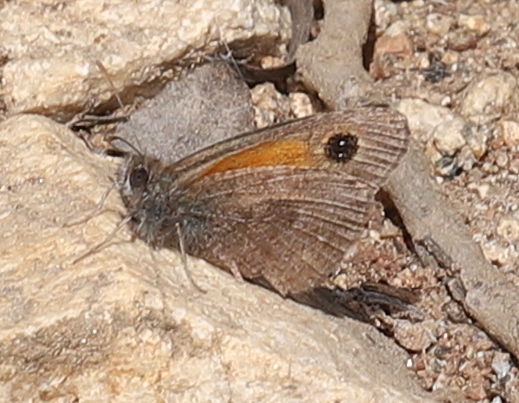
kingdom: Animalia
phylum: Arthropoda
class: Insecta
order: Lepidoptera
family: Nymphalidae
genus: Auca
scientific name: Auca barrosi
